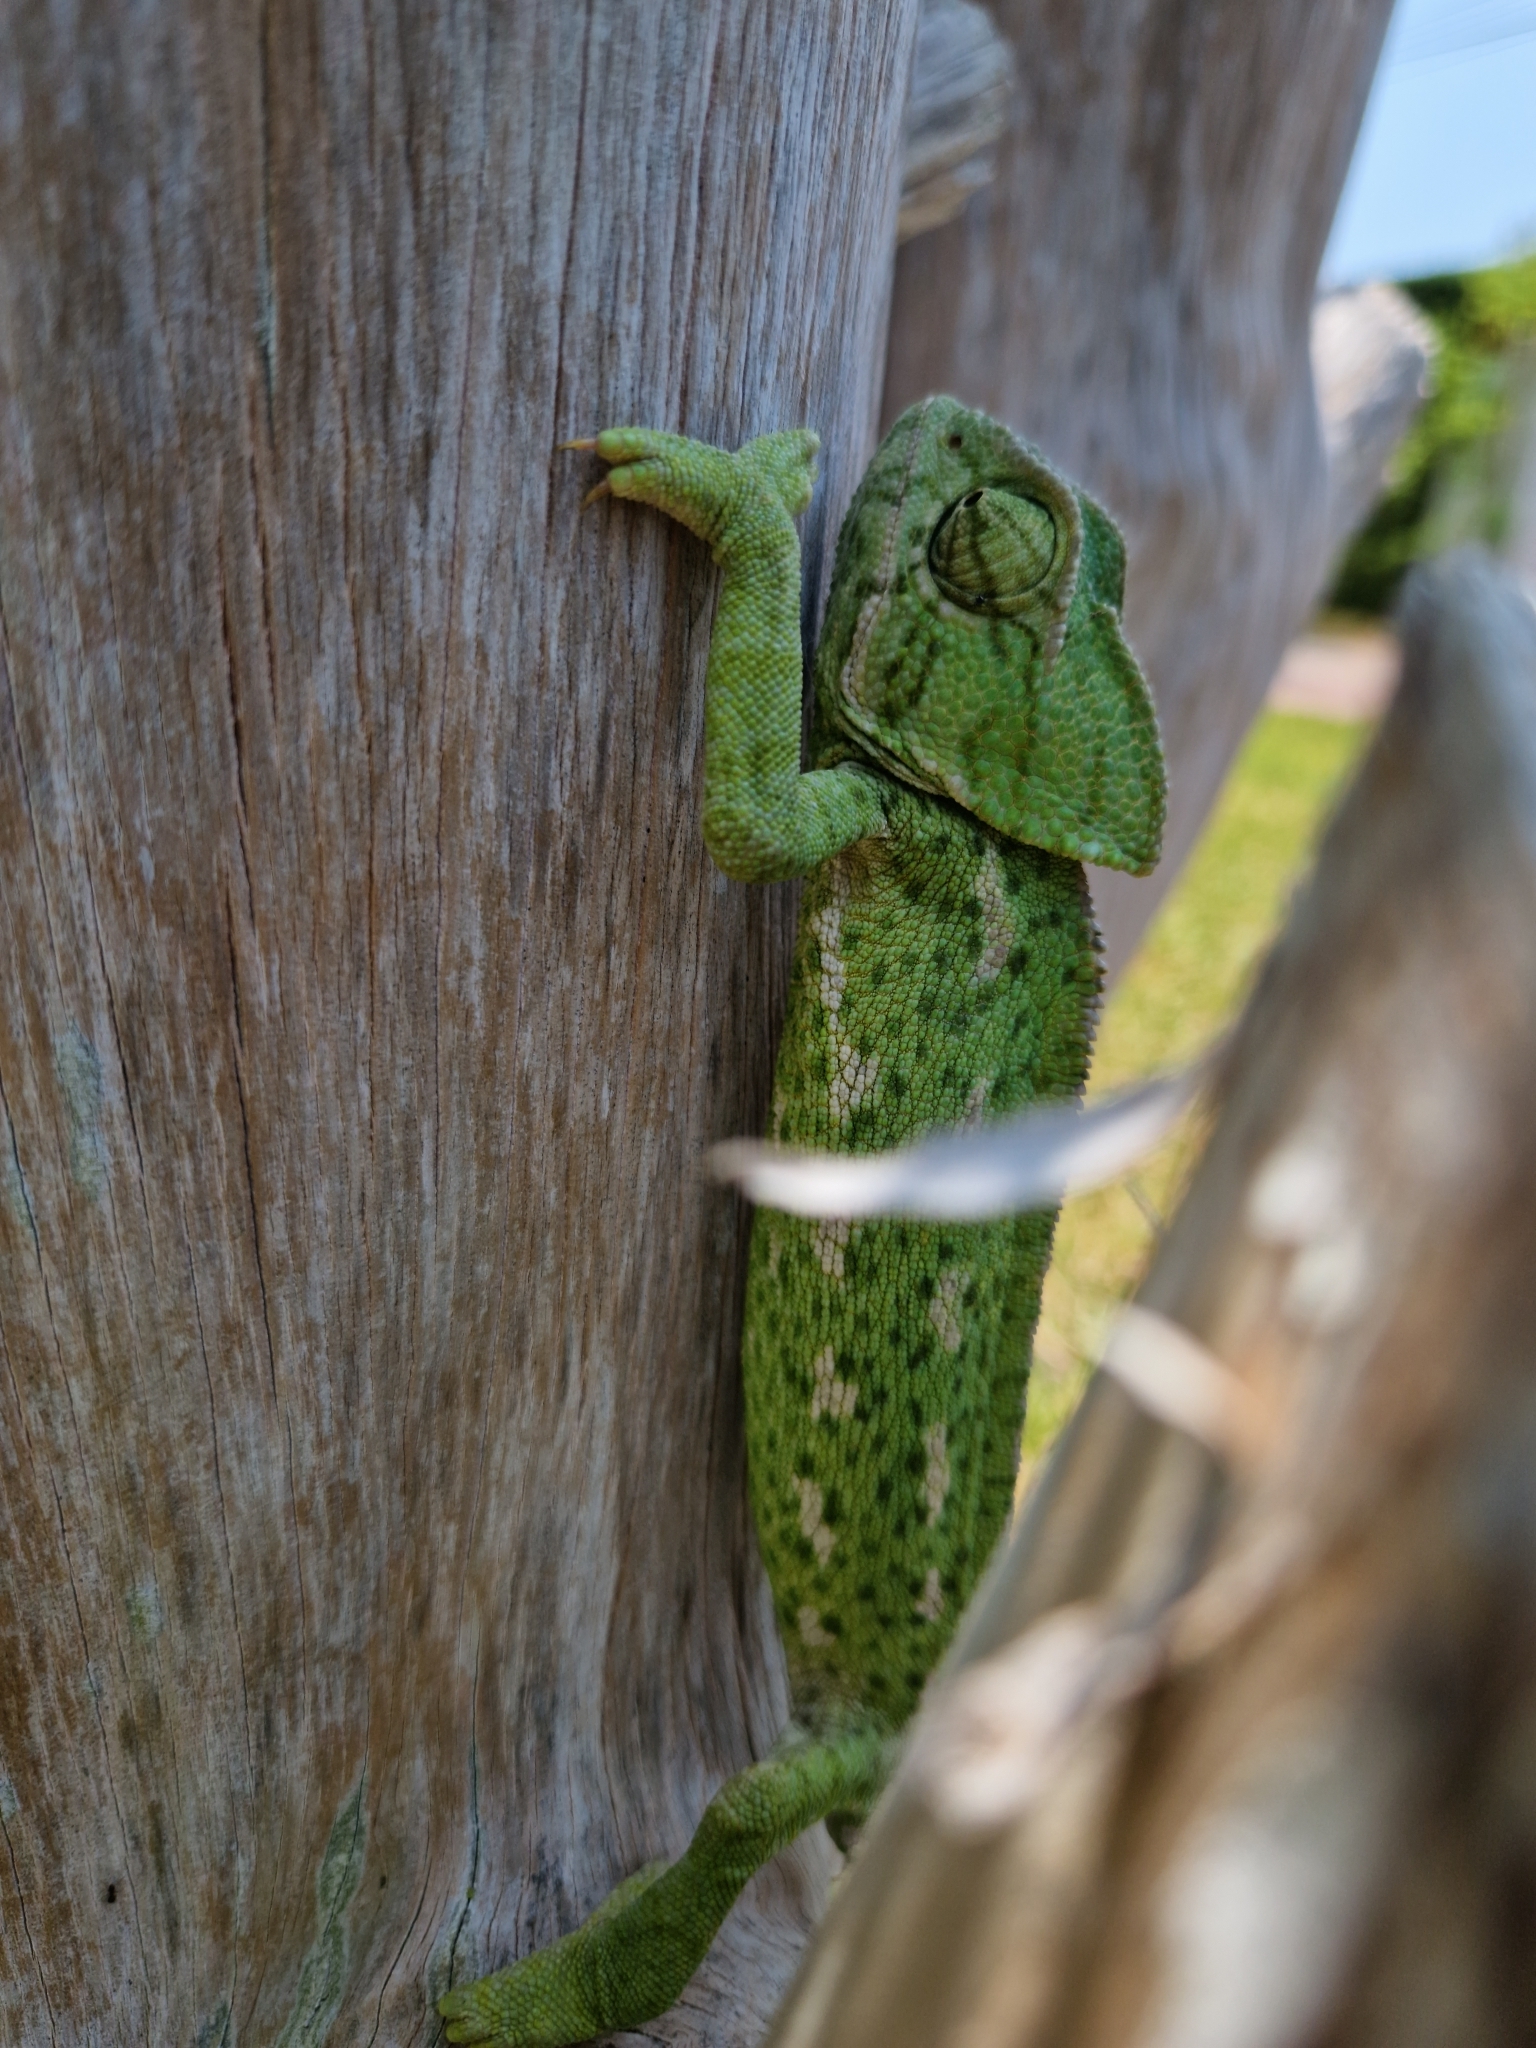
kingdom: Animalia
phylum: Chordata
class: Squamata
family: Chamaeleonidae
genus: Chamaeleo
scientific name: Chamaeleo chamaeleon
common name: Mediterranean chameleon
